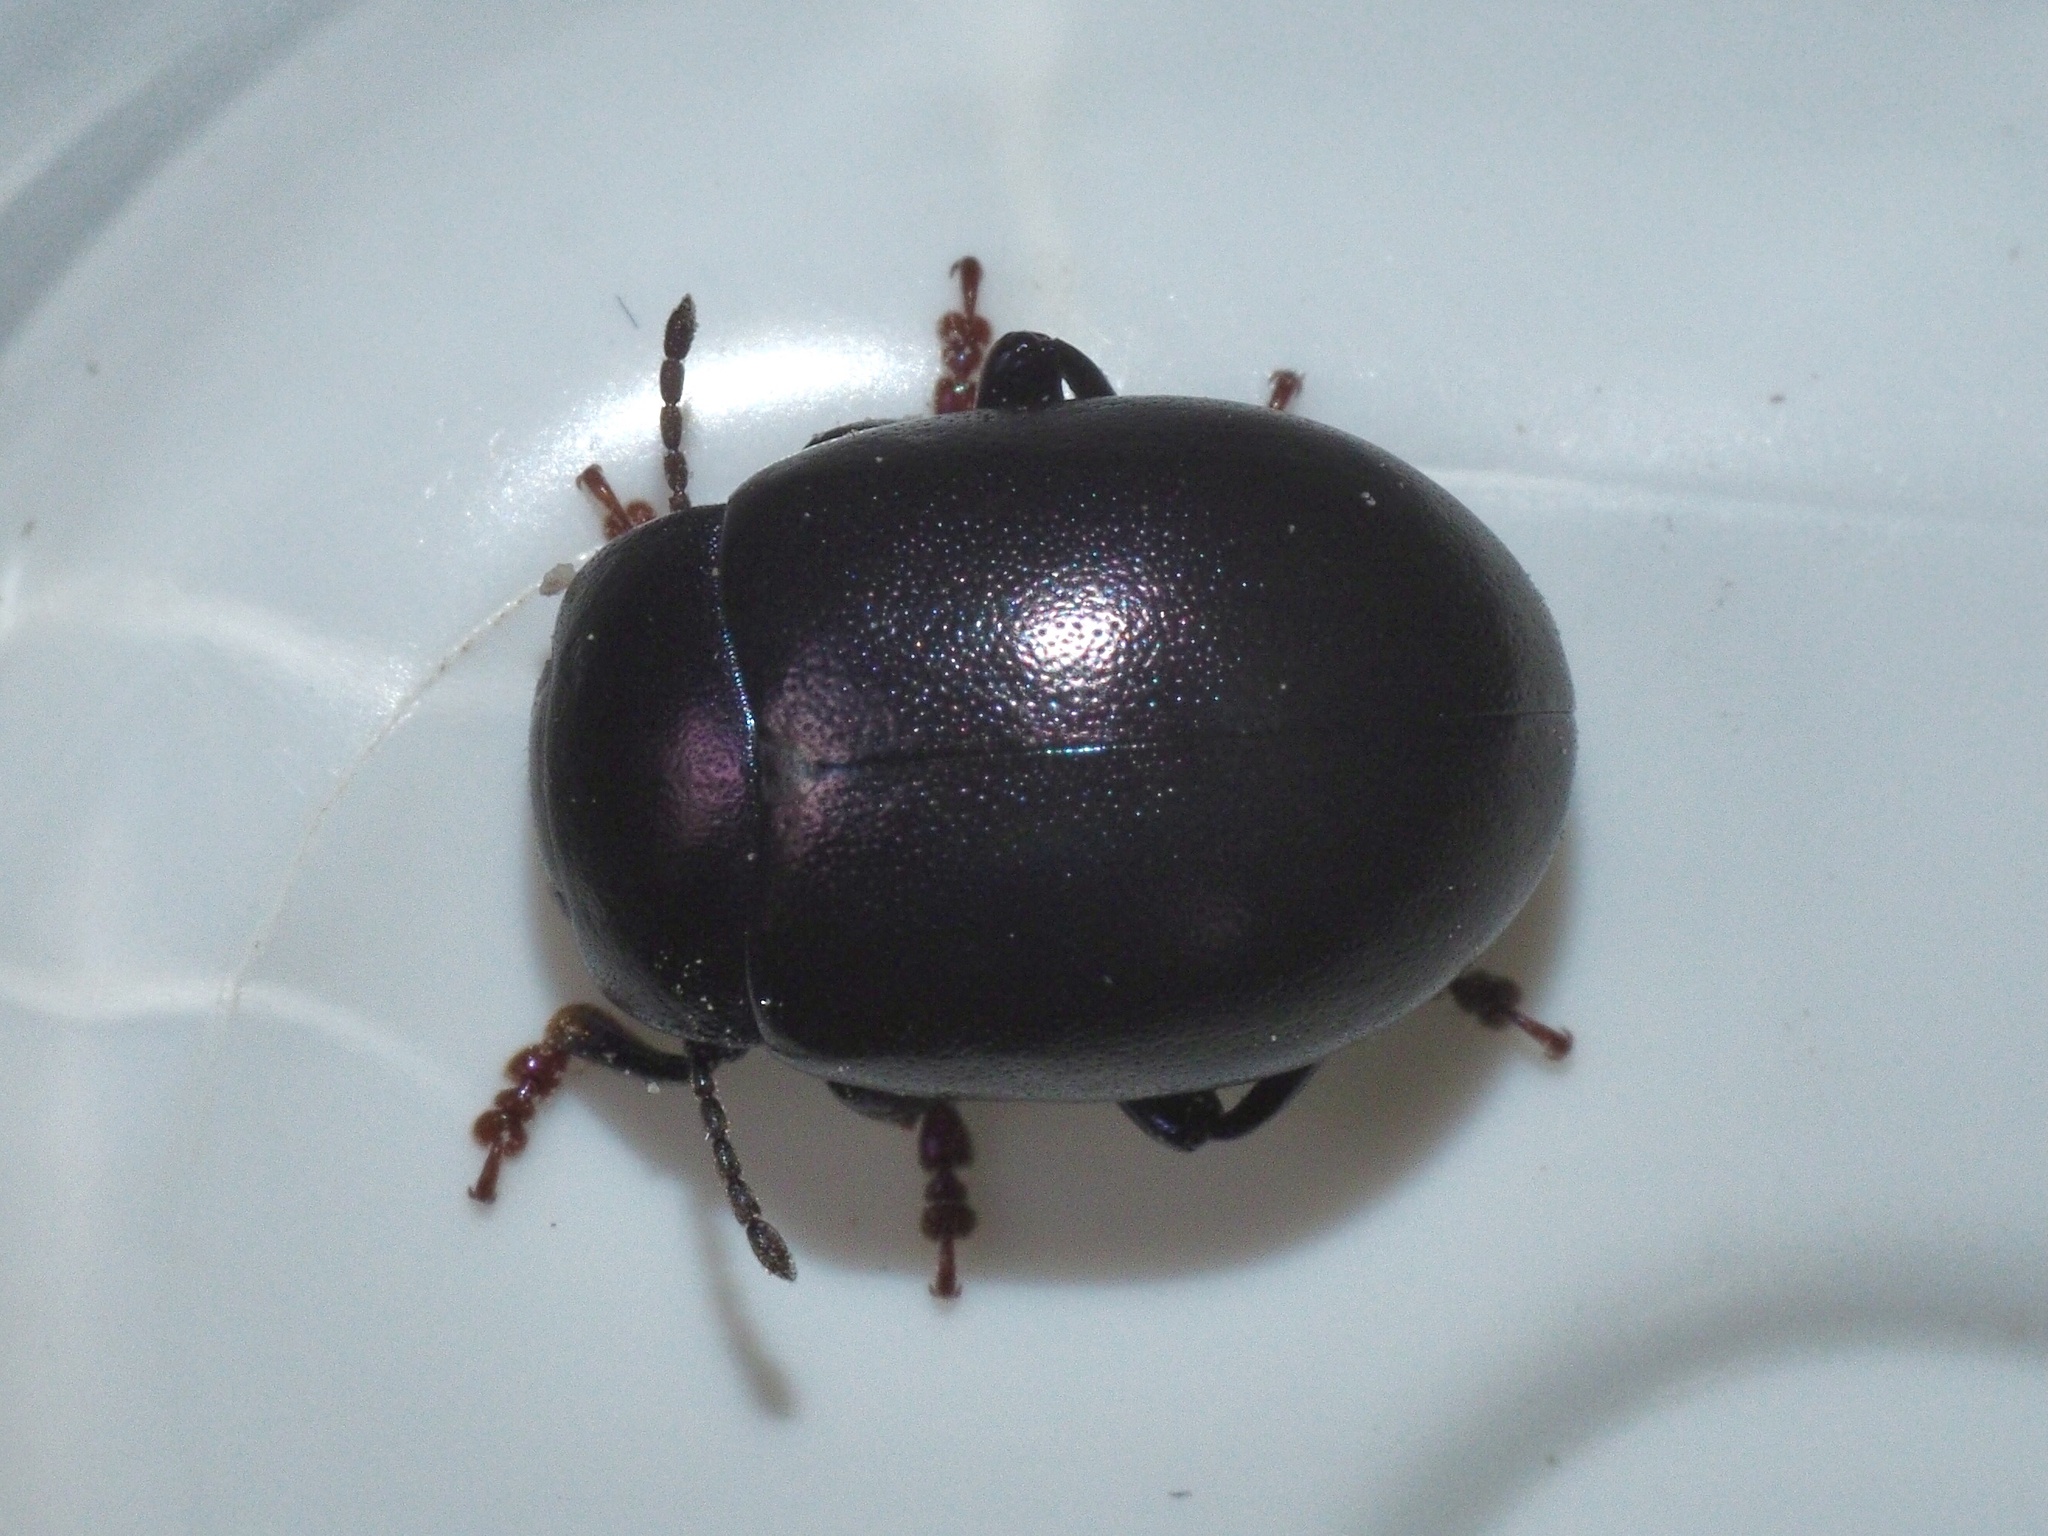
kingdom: Animalia
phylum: Arthropoda
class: Insecta
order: Coleoptera
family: Chrysomelidae
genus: Chrysolina
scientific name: Chrysolina sturmi
